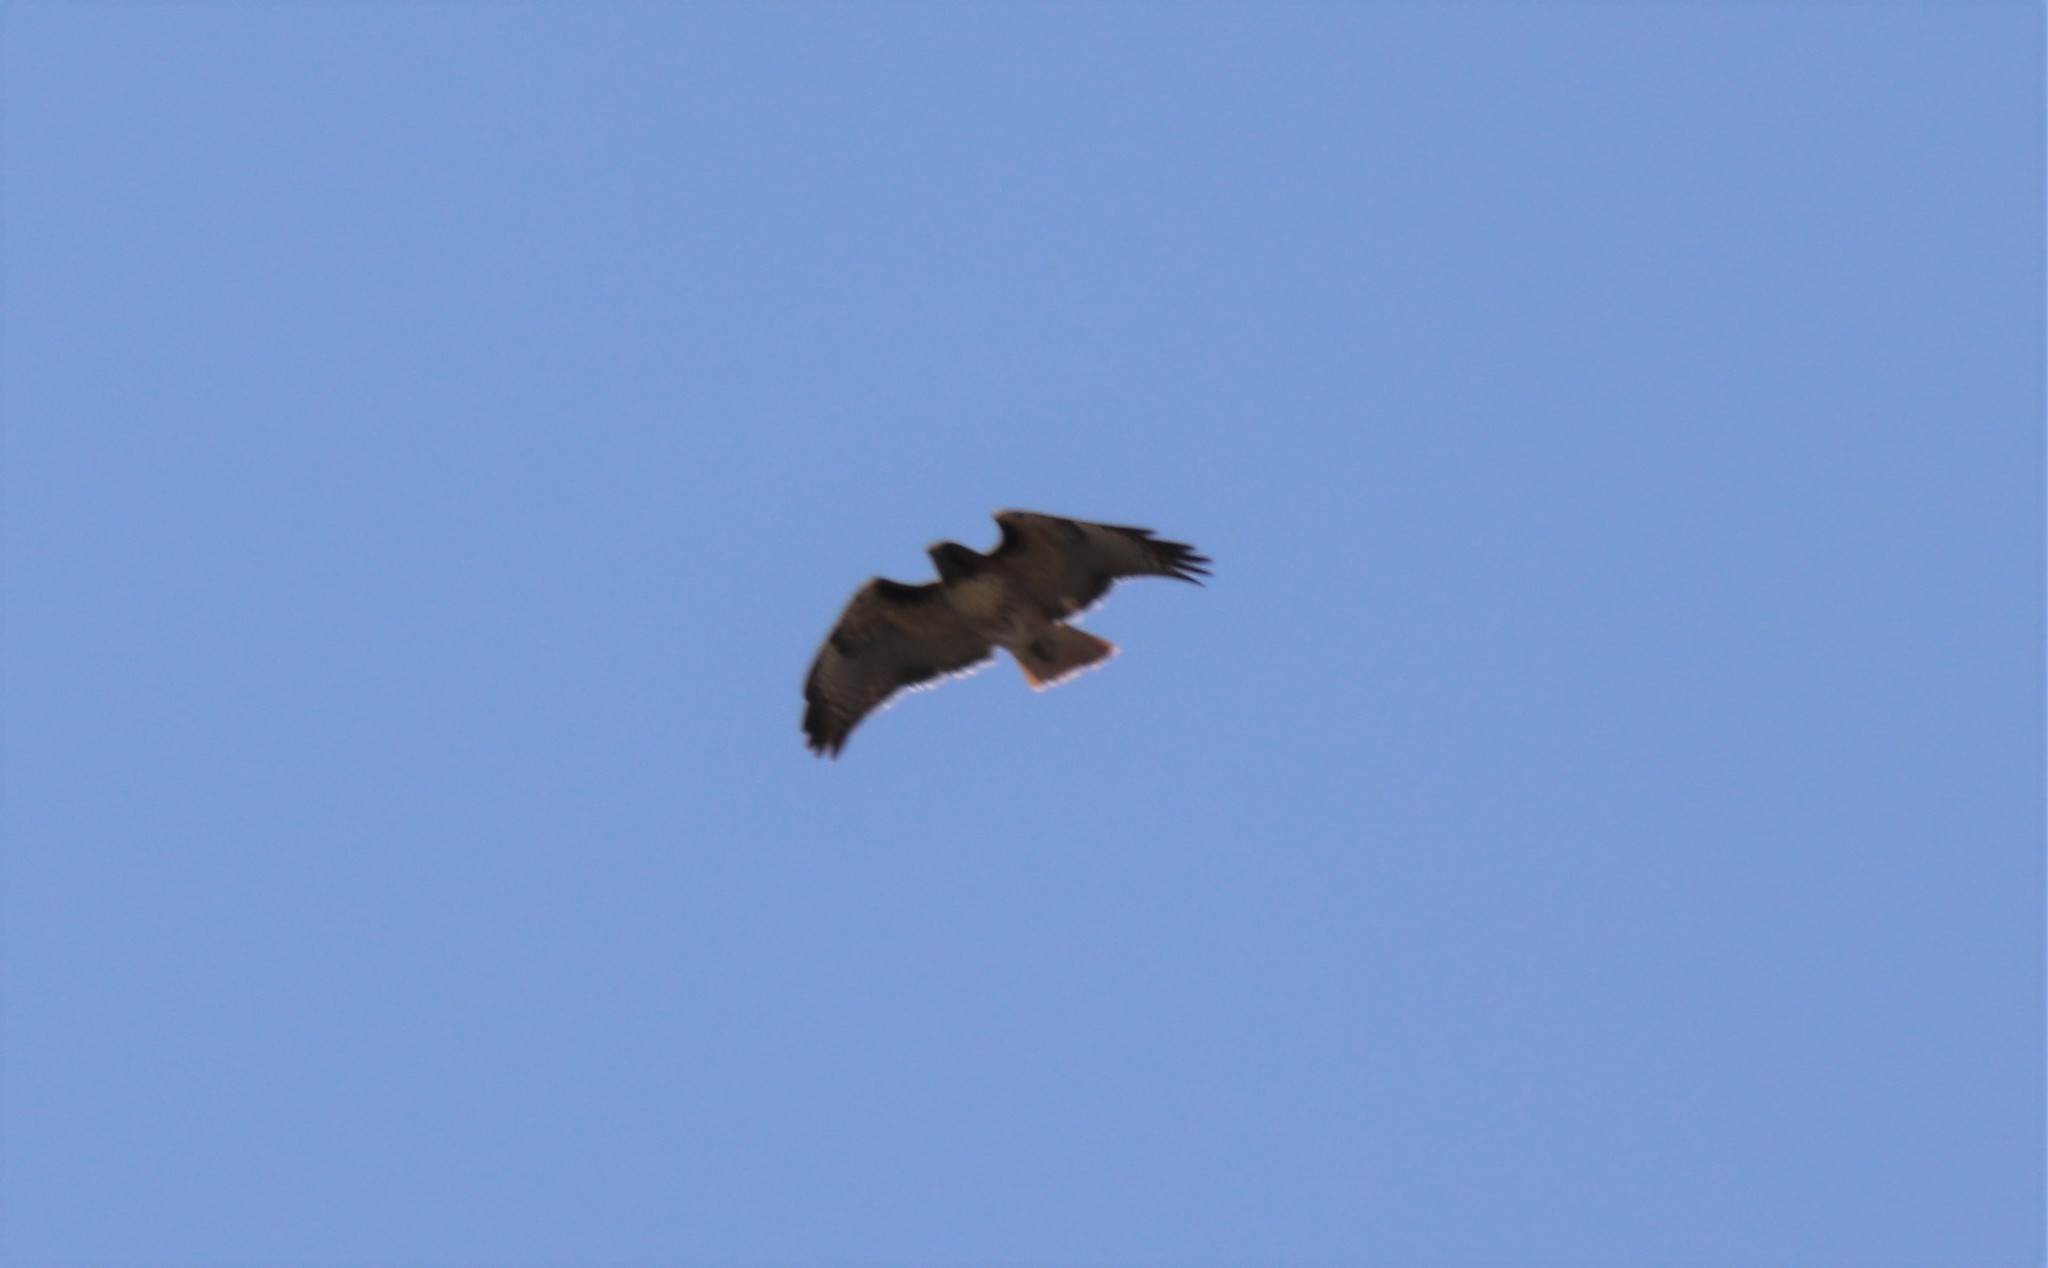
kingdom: Animalia
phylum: Chordata
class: Aves
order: Accipitriformes
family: Accipitridae
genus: Buteo
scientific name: Buteo jamaicensis
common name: Red-tailed hawk
